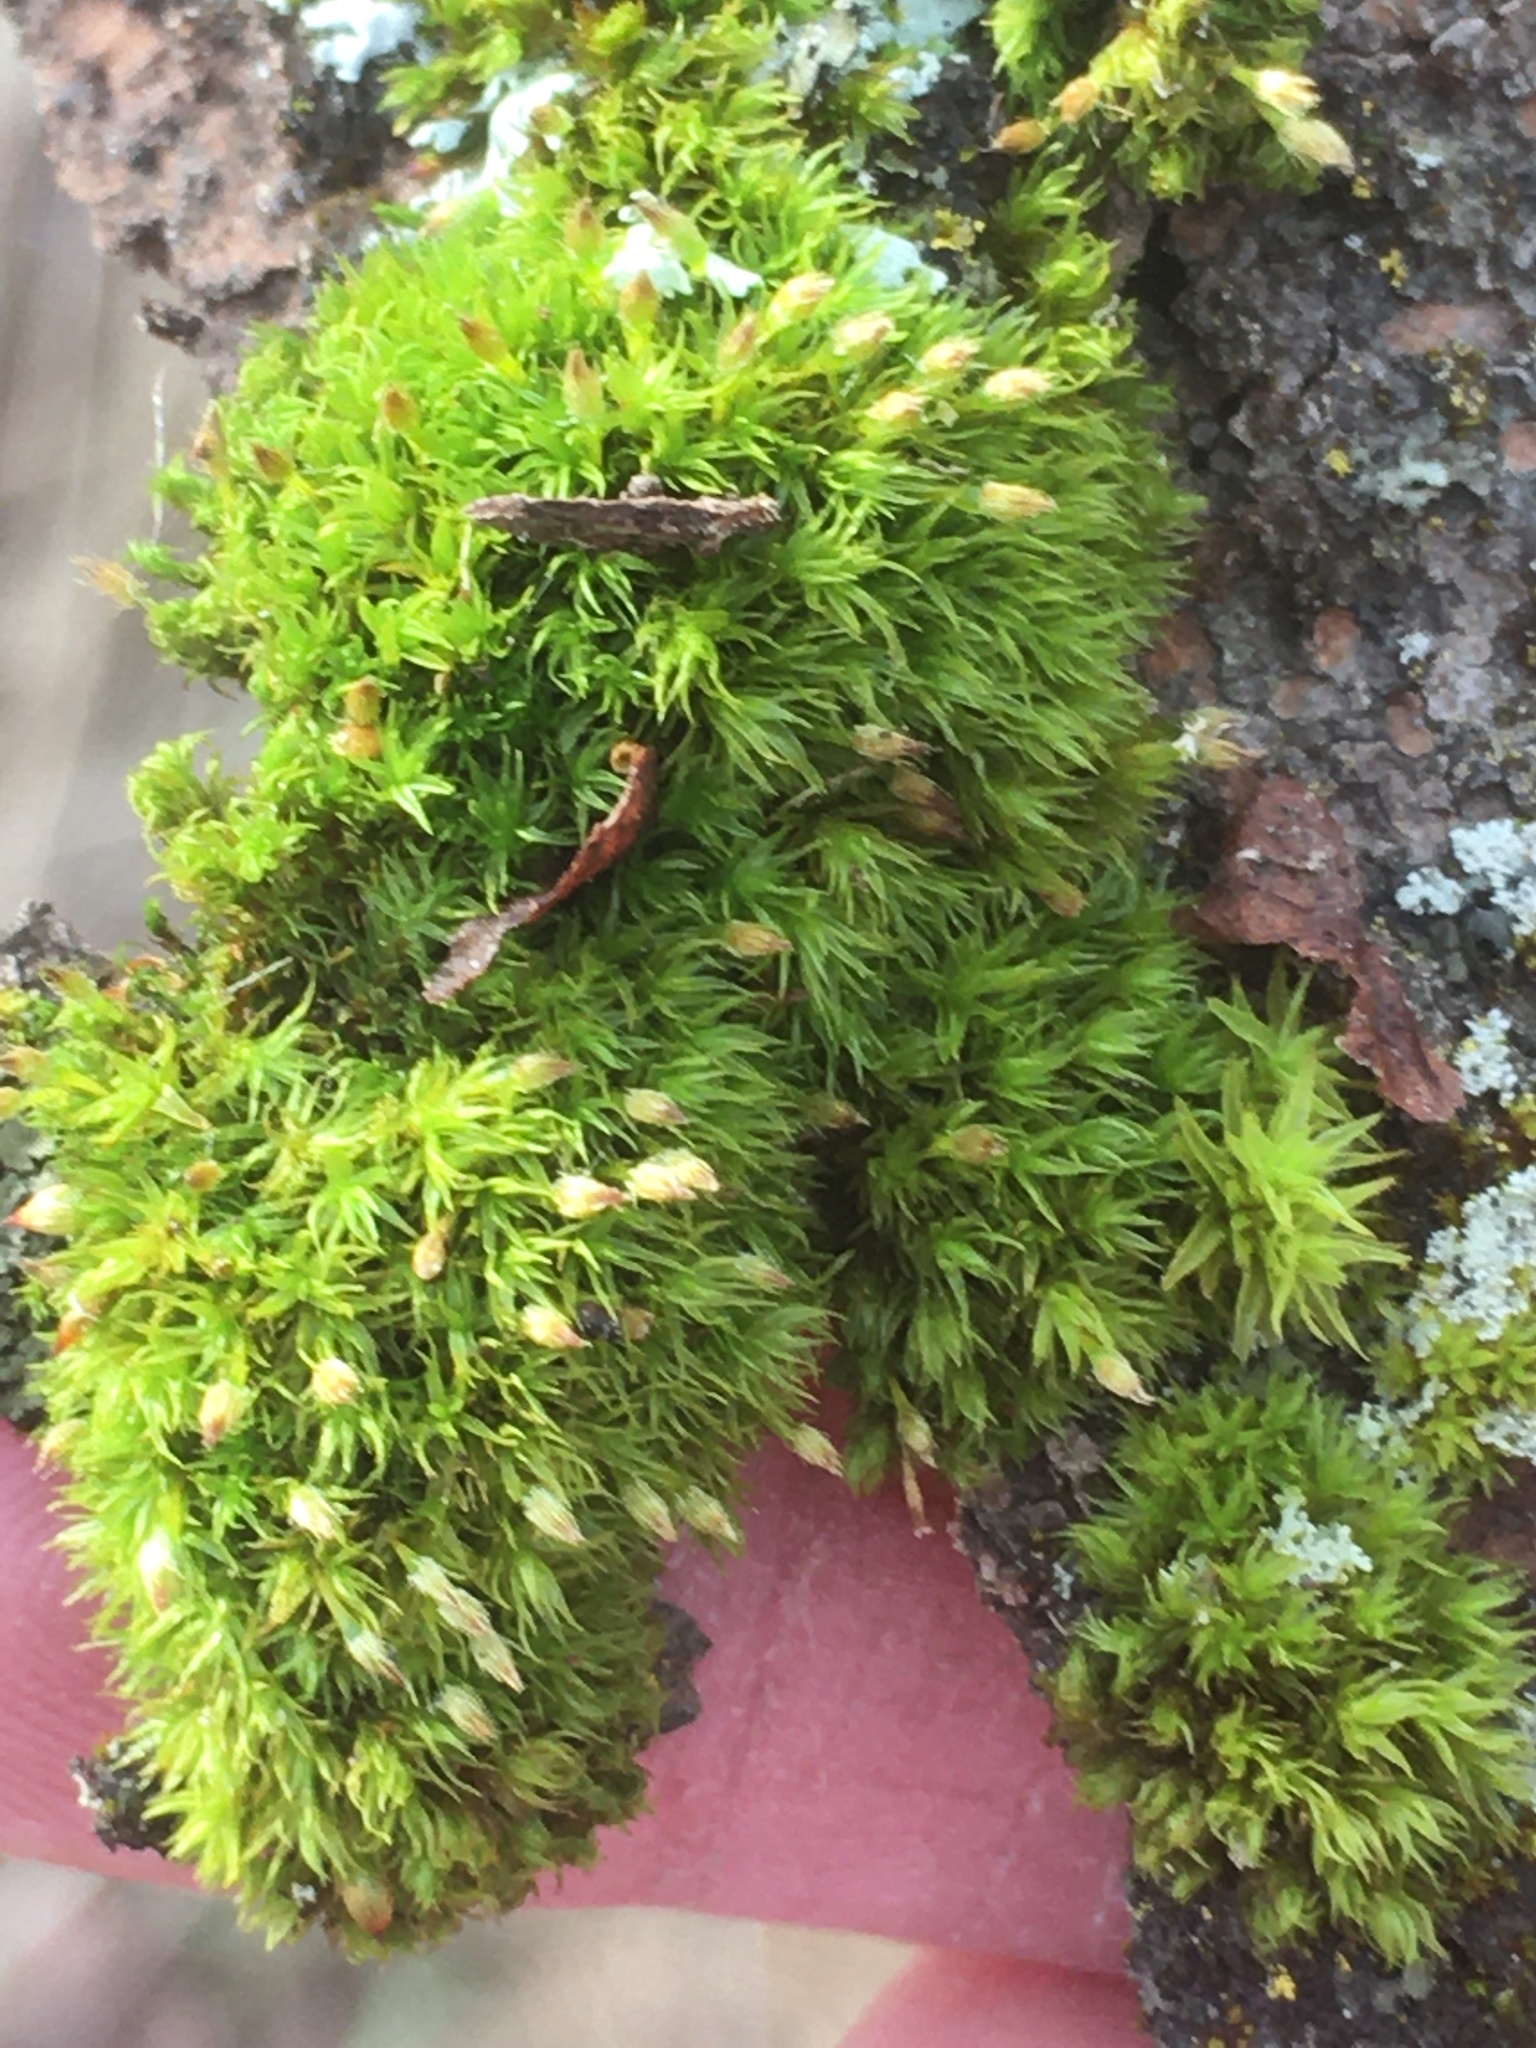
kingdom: Plantae
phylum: Bryophyta
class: Bryopsida
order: Orthotrichales
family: Orthotrichaceae
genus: Ulota
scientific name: Ulota crispa
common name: Crisped pincushion moss
